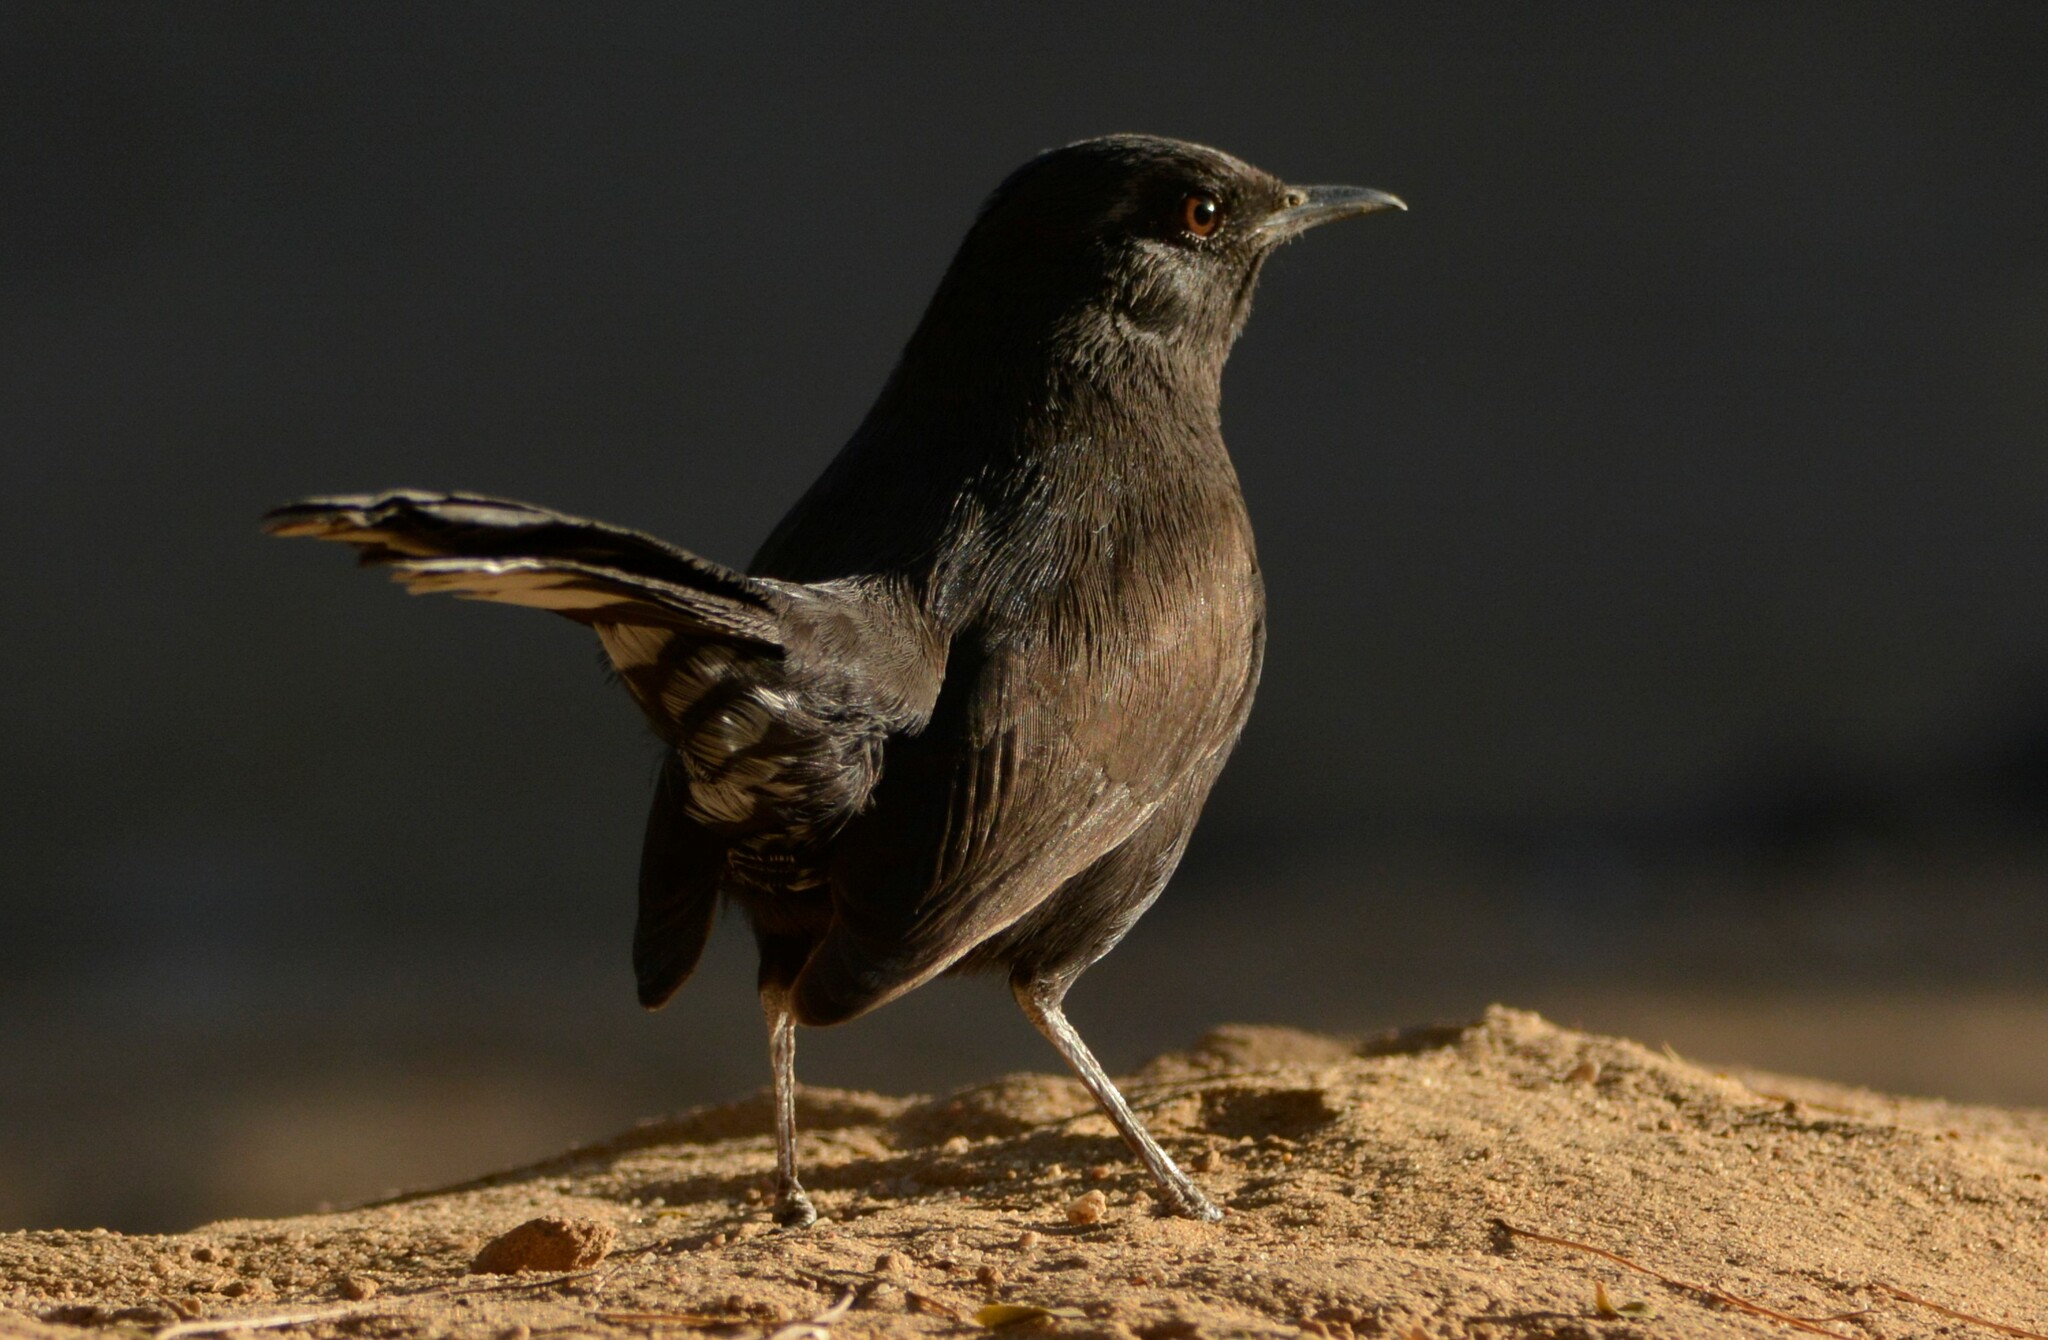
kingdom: Animalia
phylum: Chordata
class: Aves
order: Passeriformes
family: Muscicapidae
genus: Cercotrichas
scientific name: Cercotrichas podobe
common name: Black scrub robin
